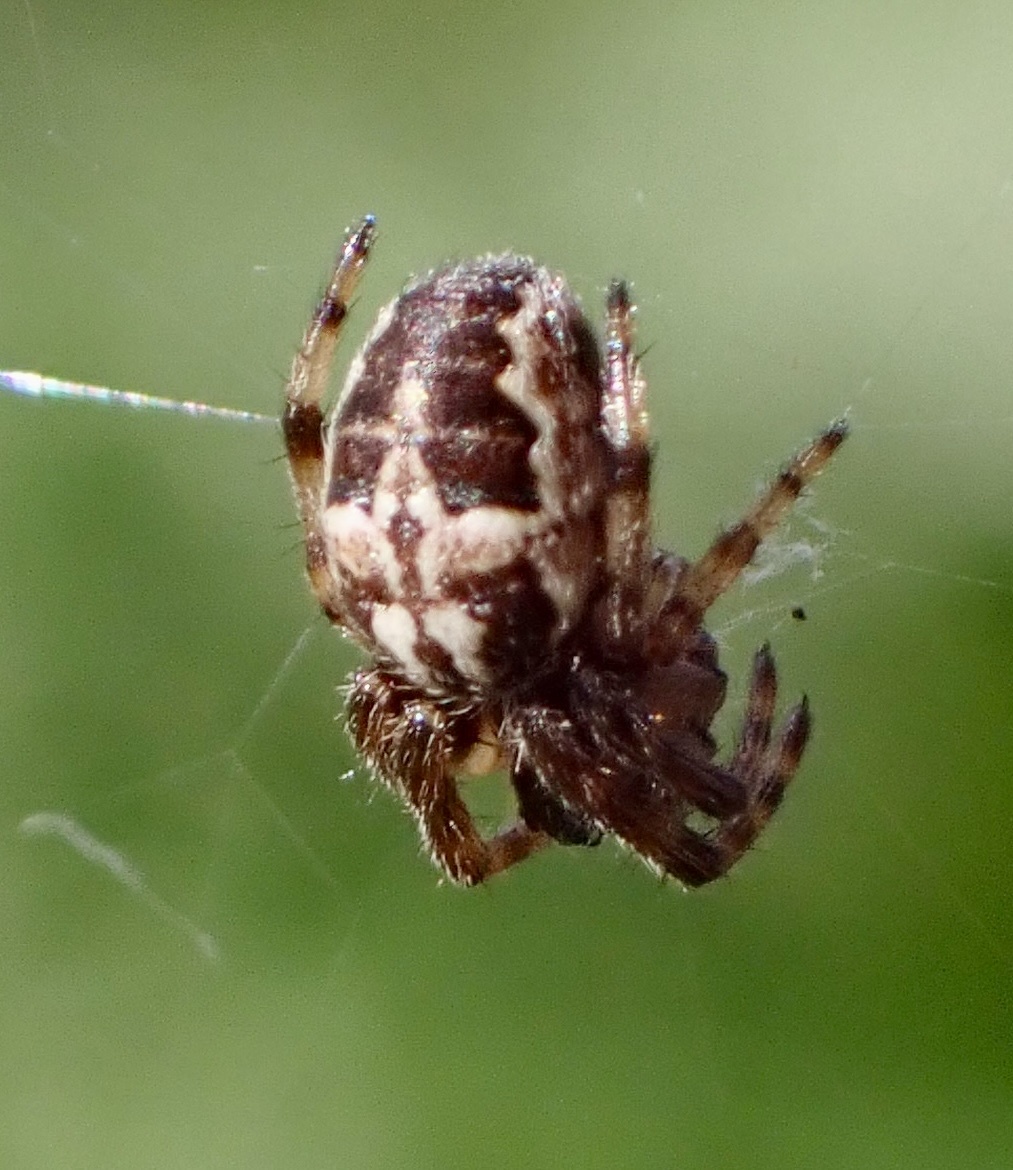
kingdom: Animalia
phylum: Arthropoda
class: Arachnida
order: Araneae
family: Araneidae
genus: Larinioides
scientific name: Larinioides cornutus
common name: Furrow orbweaver
